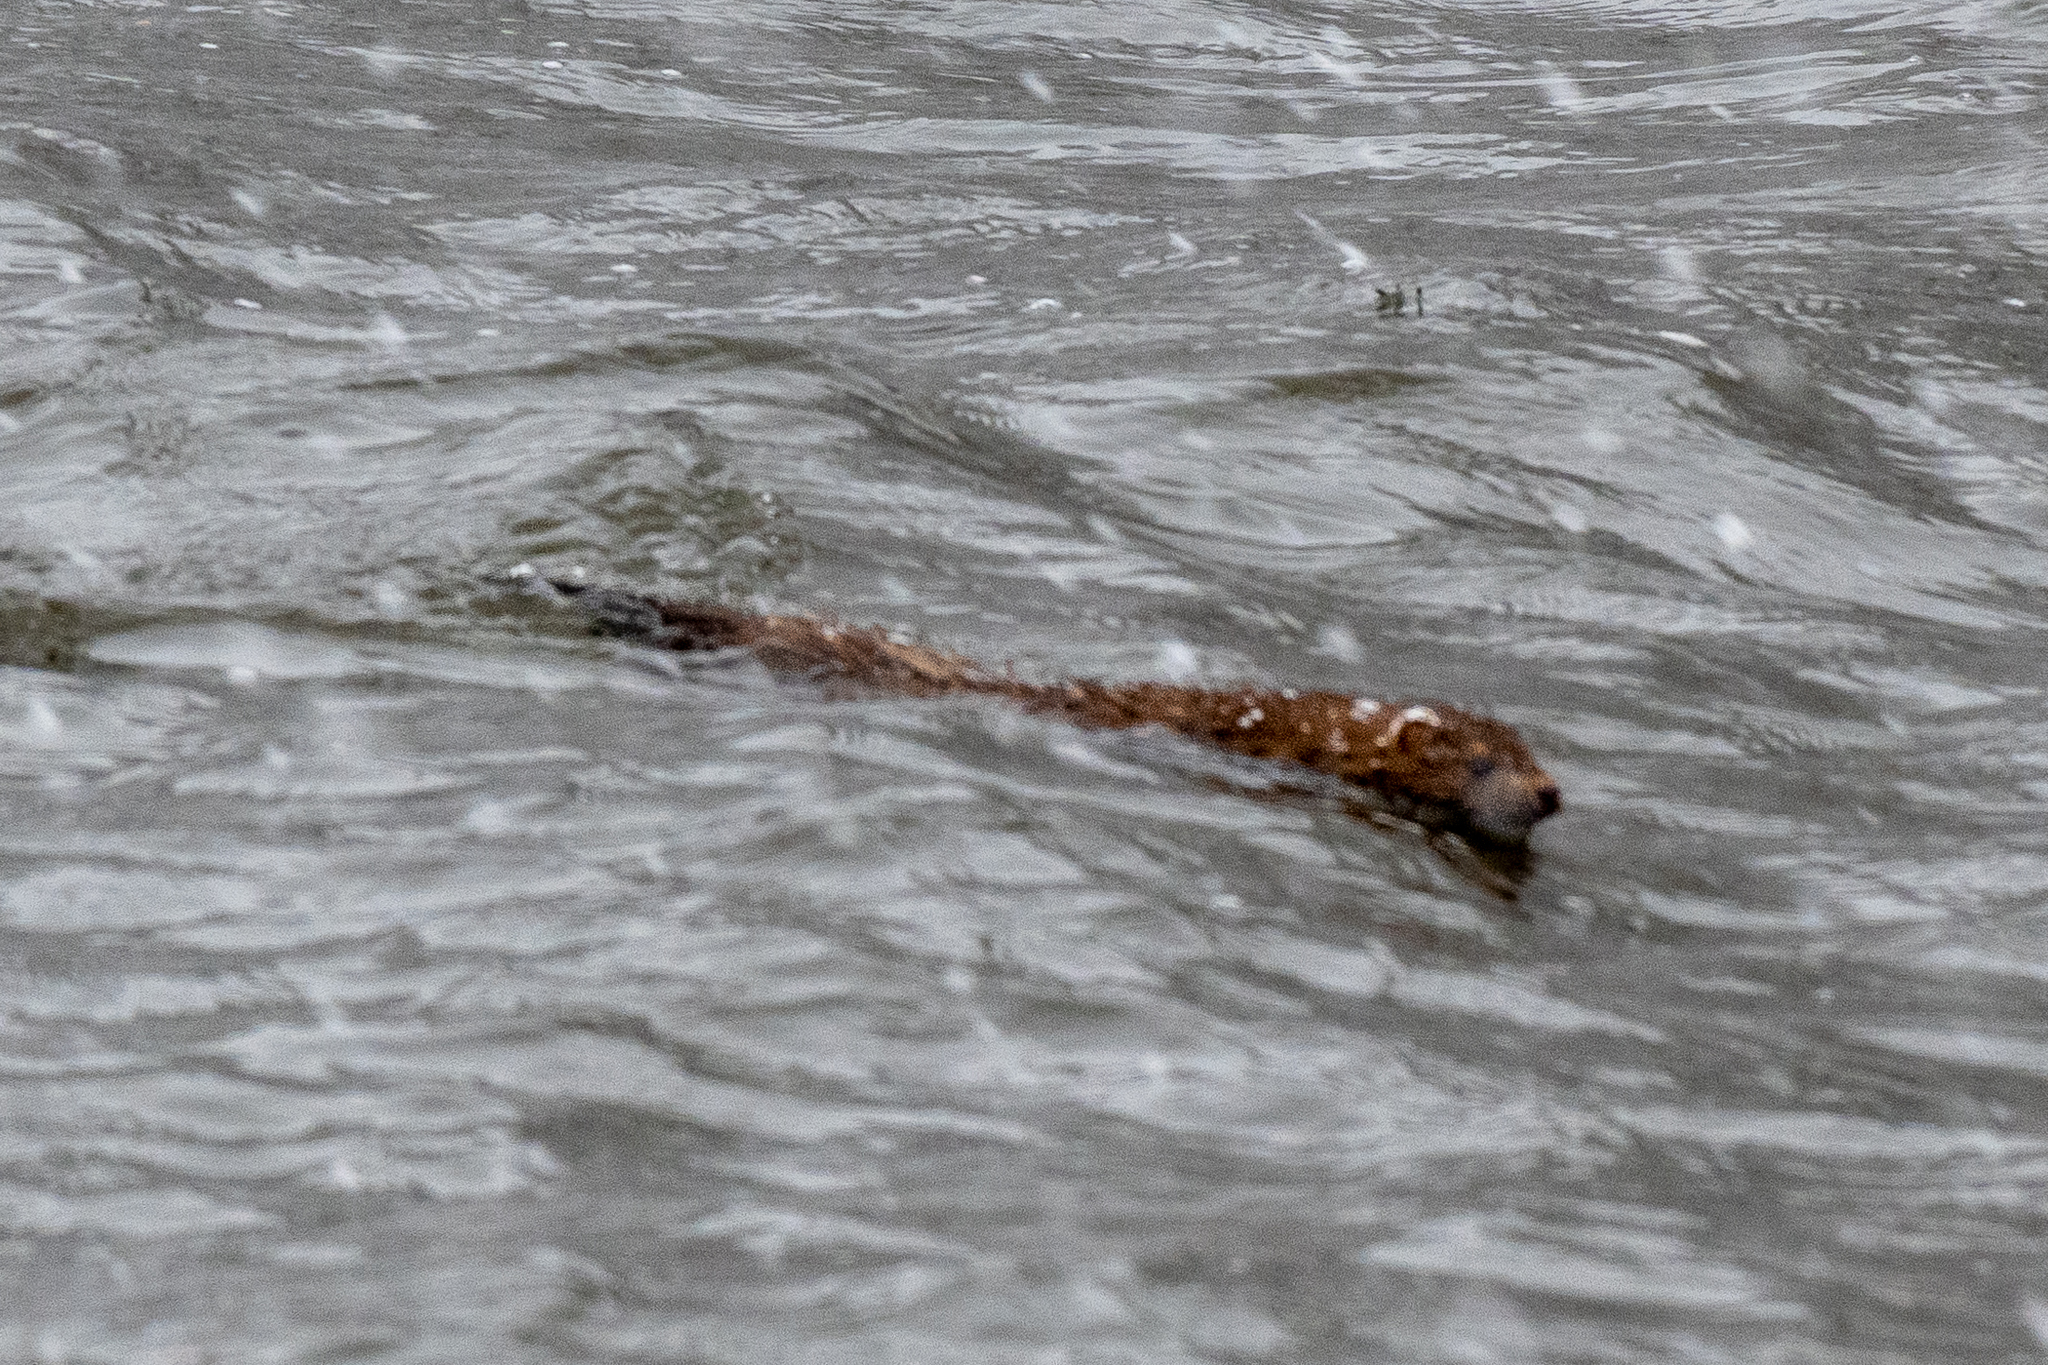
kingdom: Animalia
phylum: Chordata
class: Mammalia
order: Carnivora
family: Mustelidae
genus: Mustela
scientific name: Mustela
